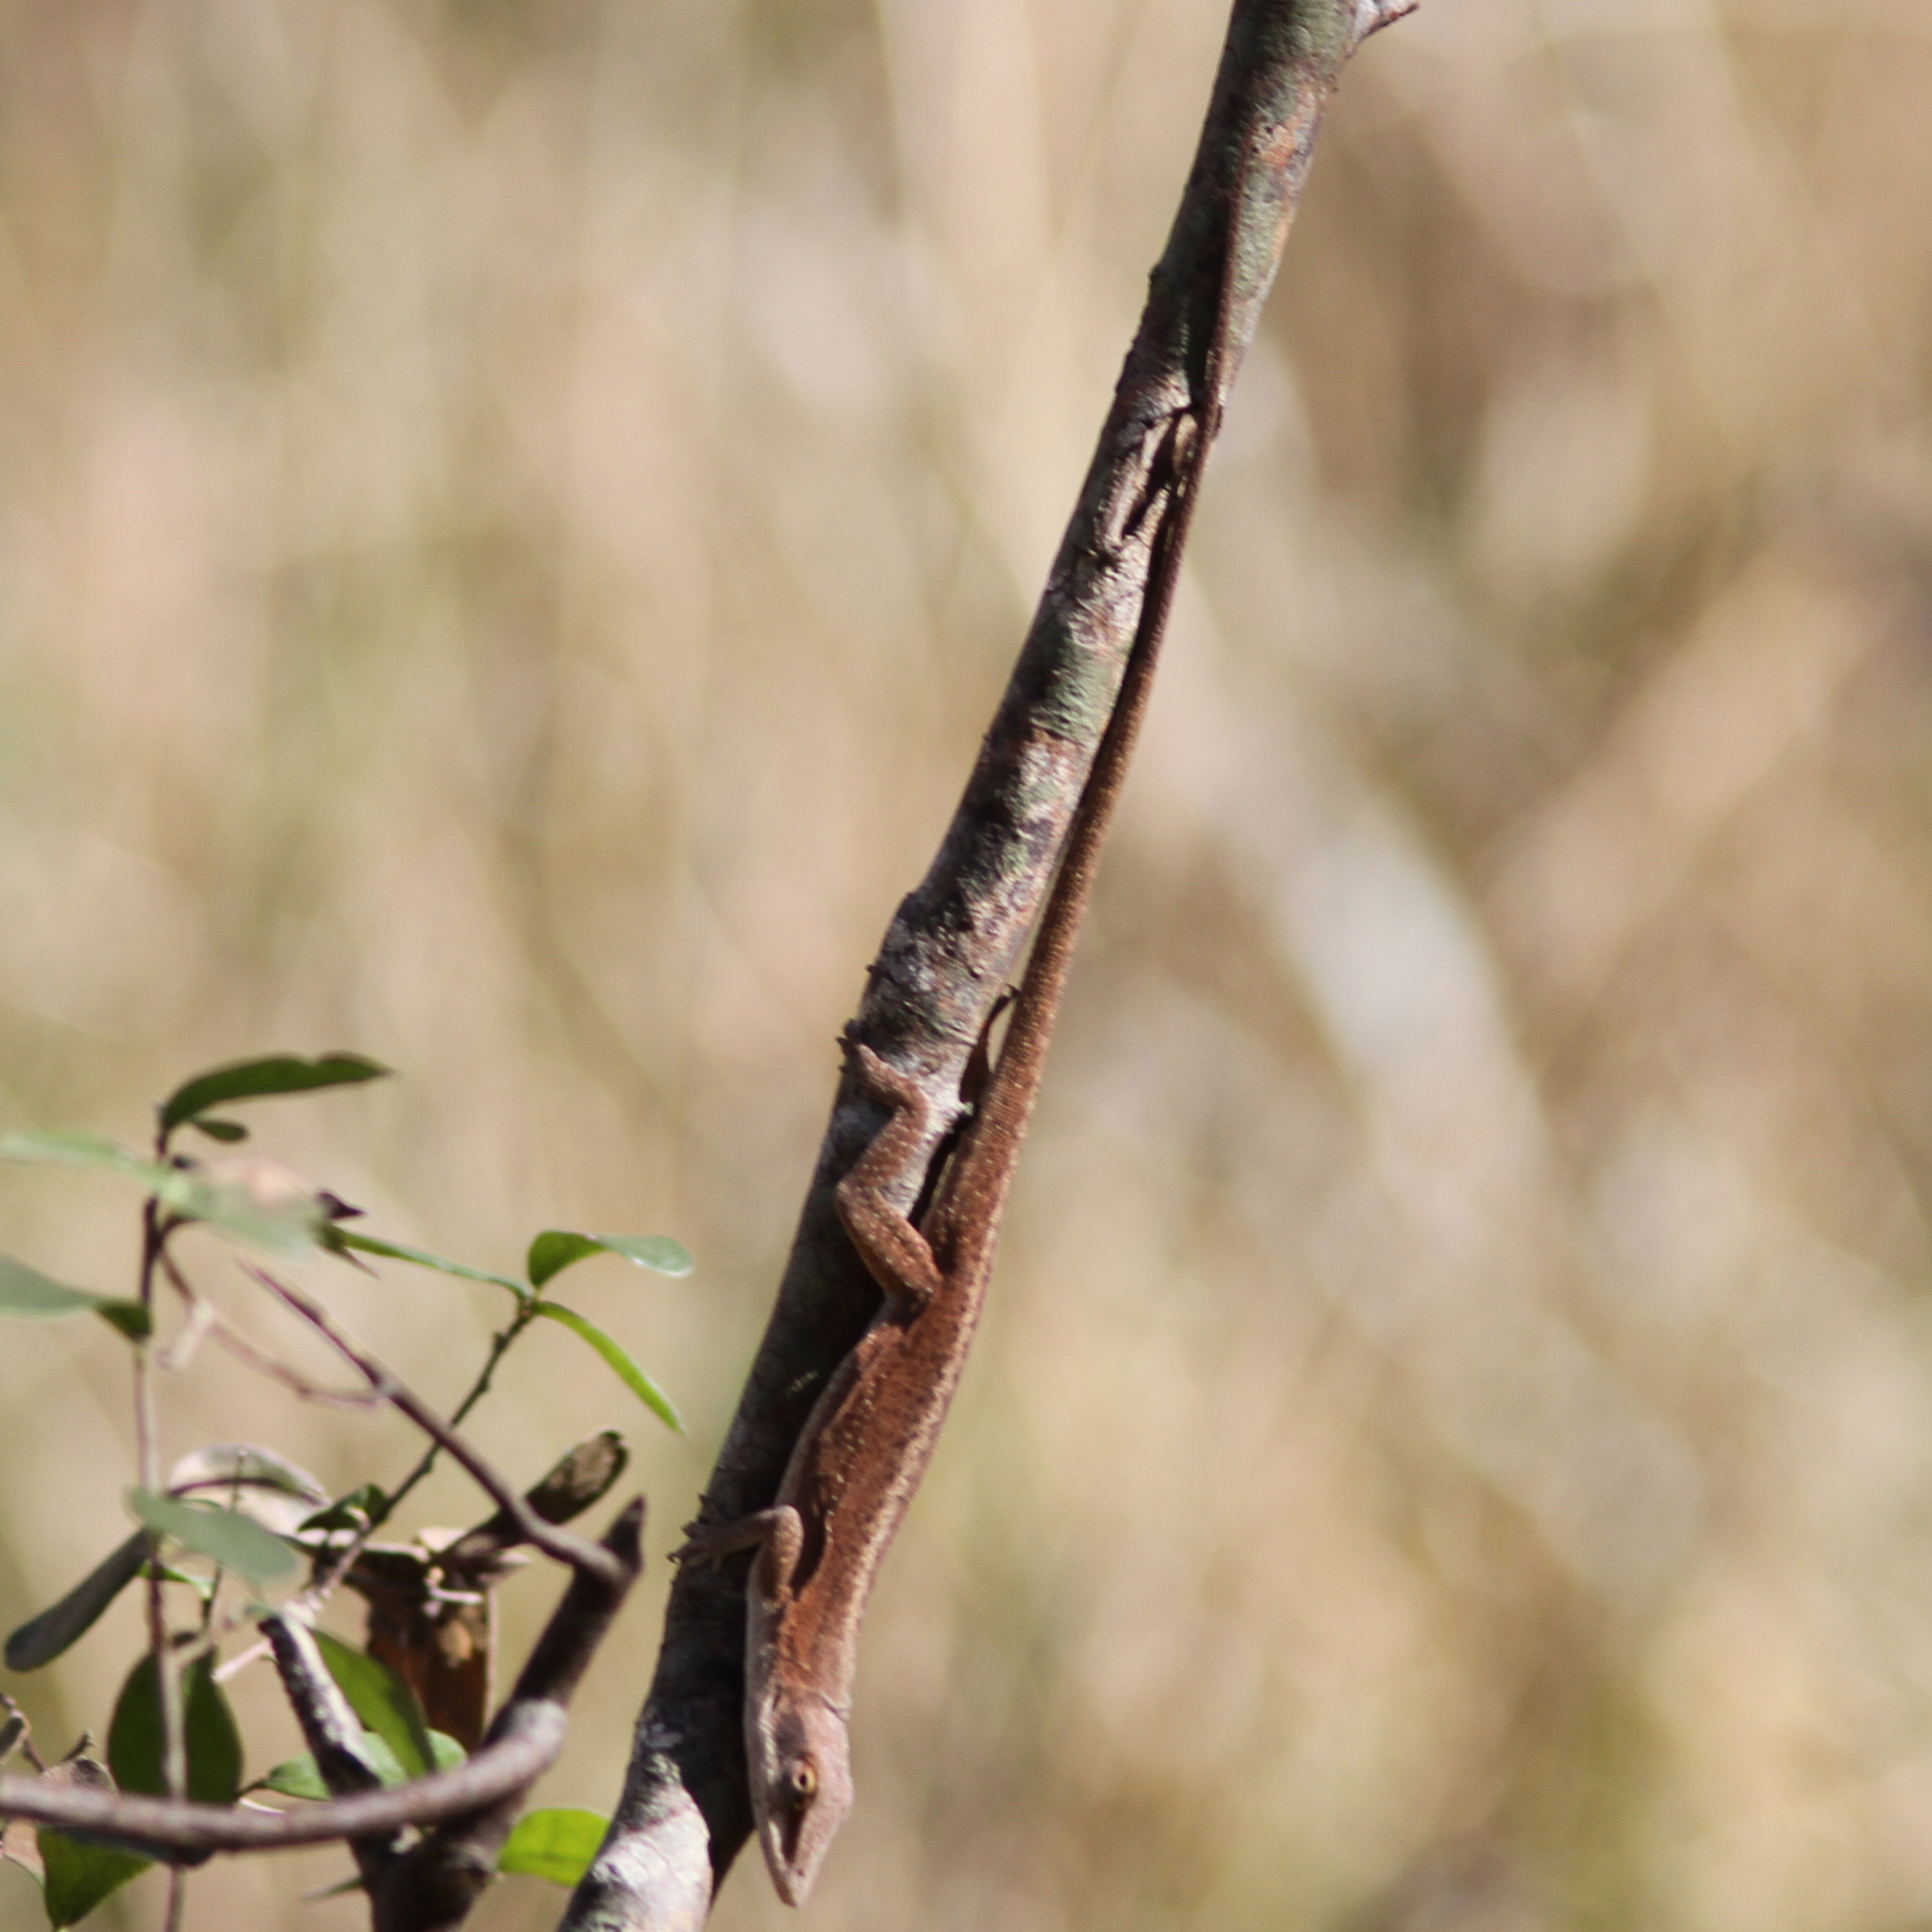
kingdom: Animalia
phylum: Chordata
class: Squamata
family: Dactyloidae
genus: Anolis
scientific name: Anolis carolinensis
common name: Green anole
